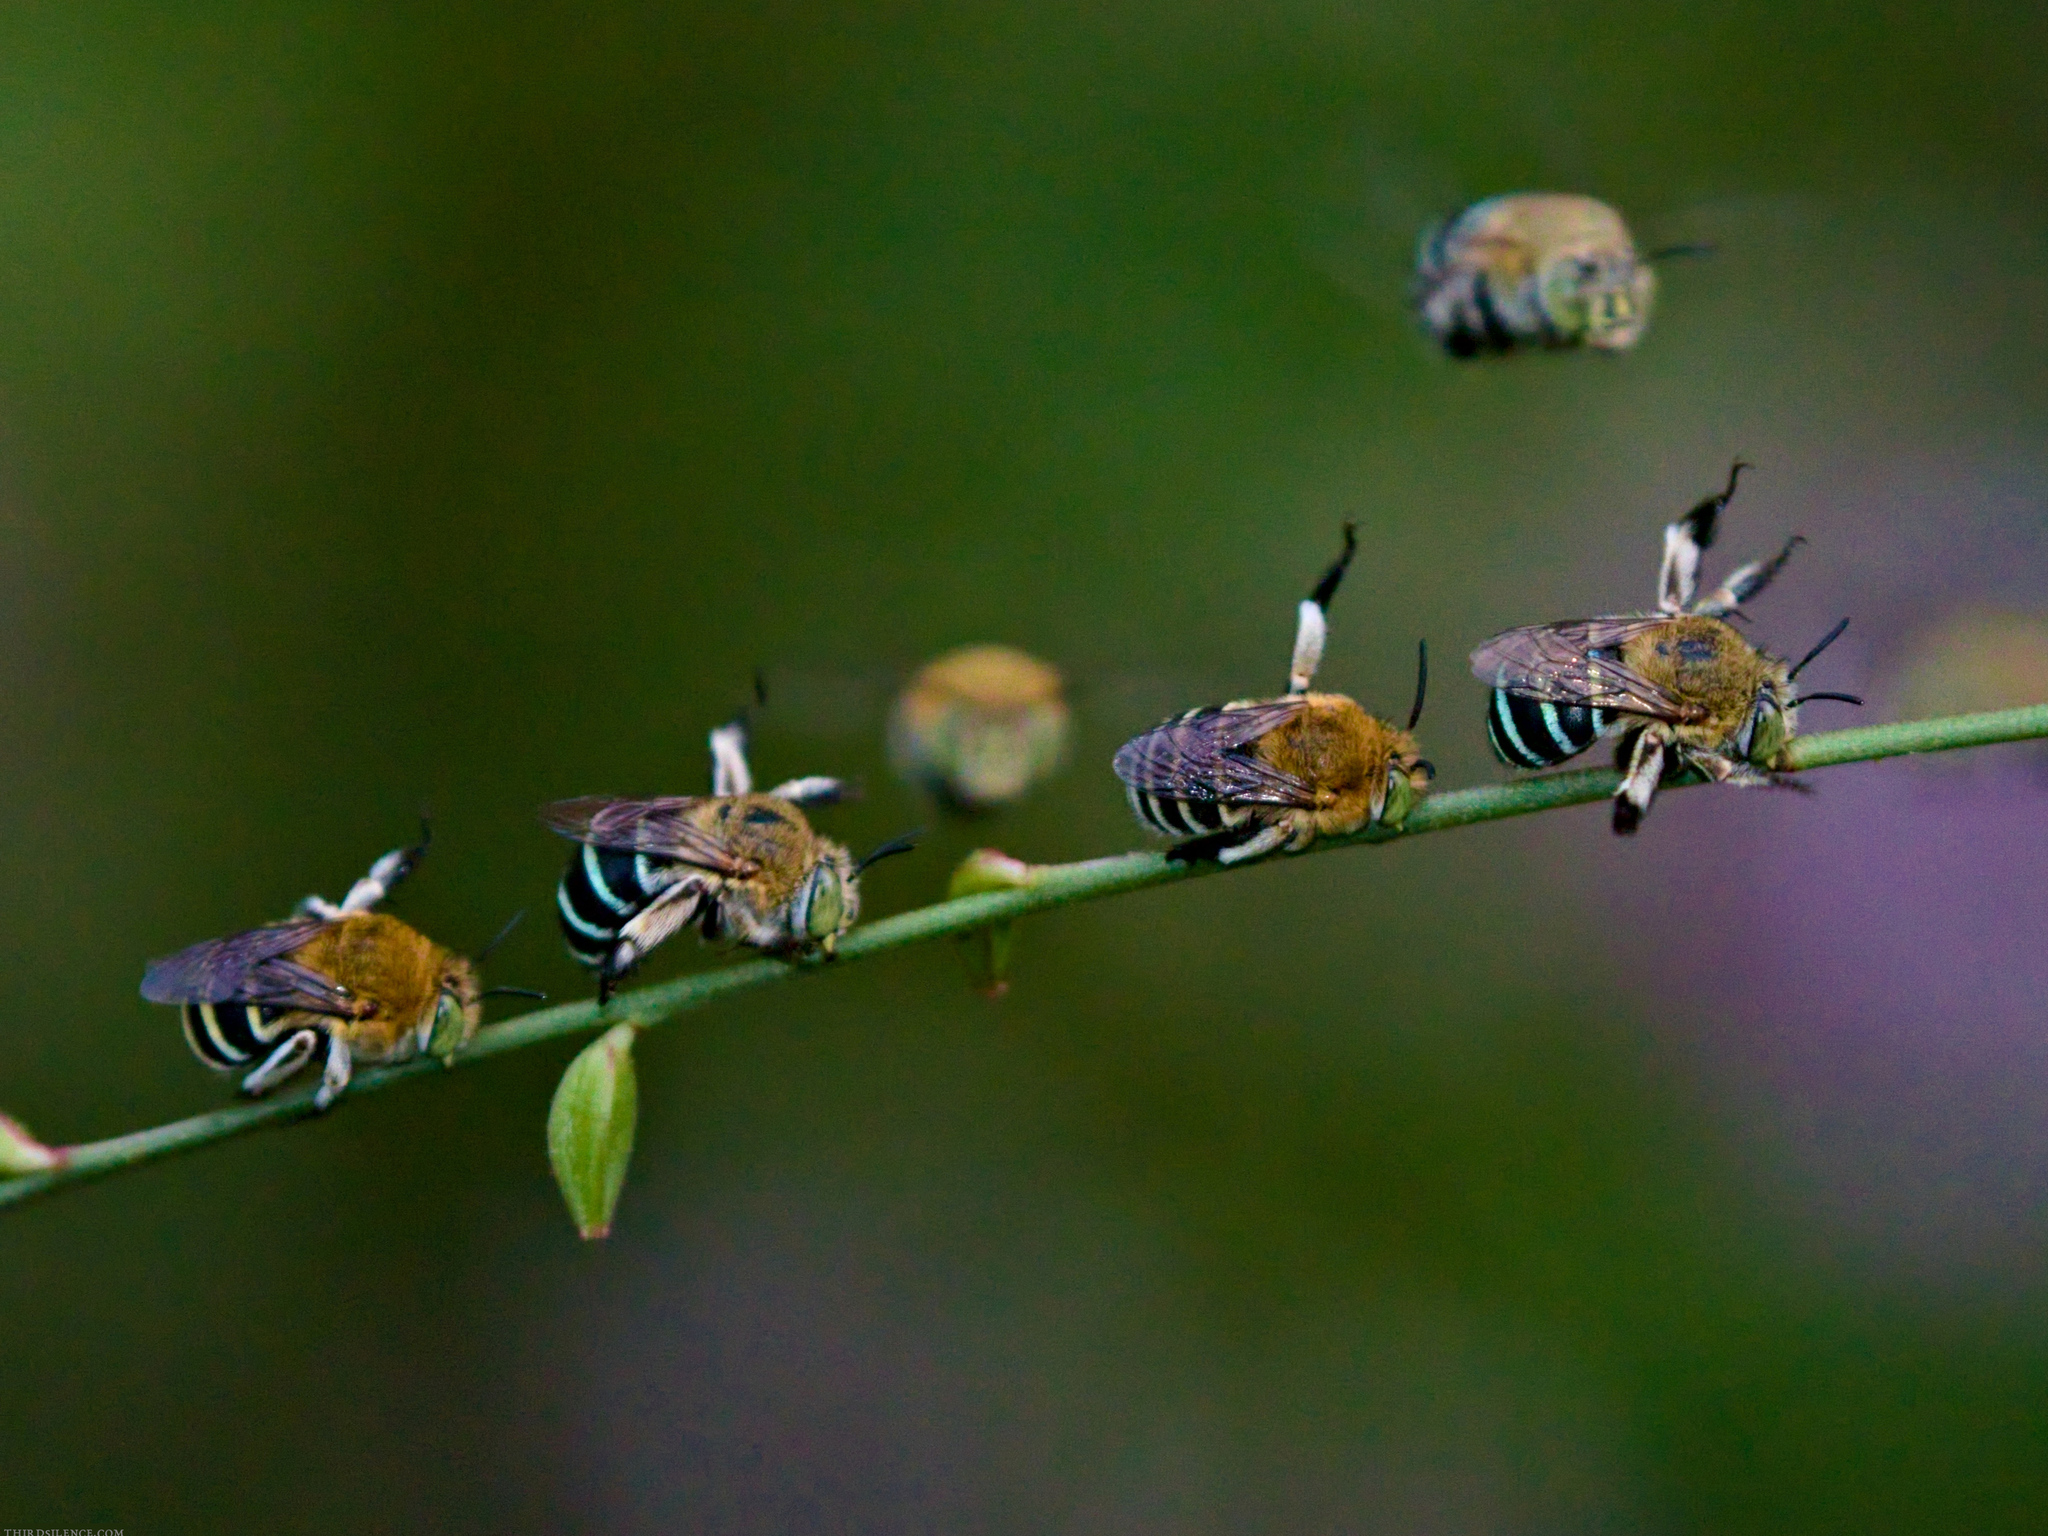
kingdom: Animalia
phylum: Arthropoda
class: Insecta
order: Hymenoptera
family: Apidae
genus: Amegilla
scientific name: Amegilla asserta
